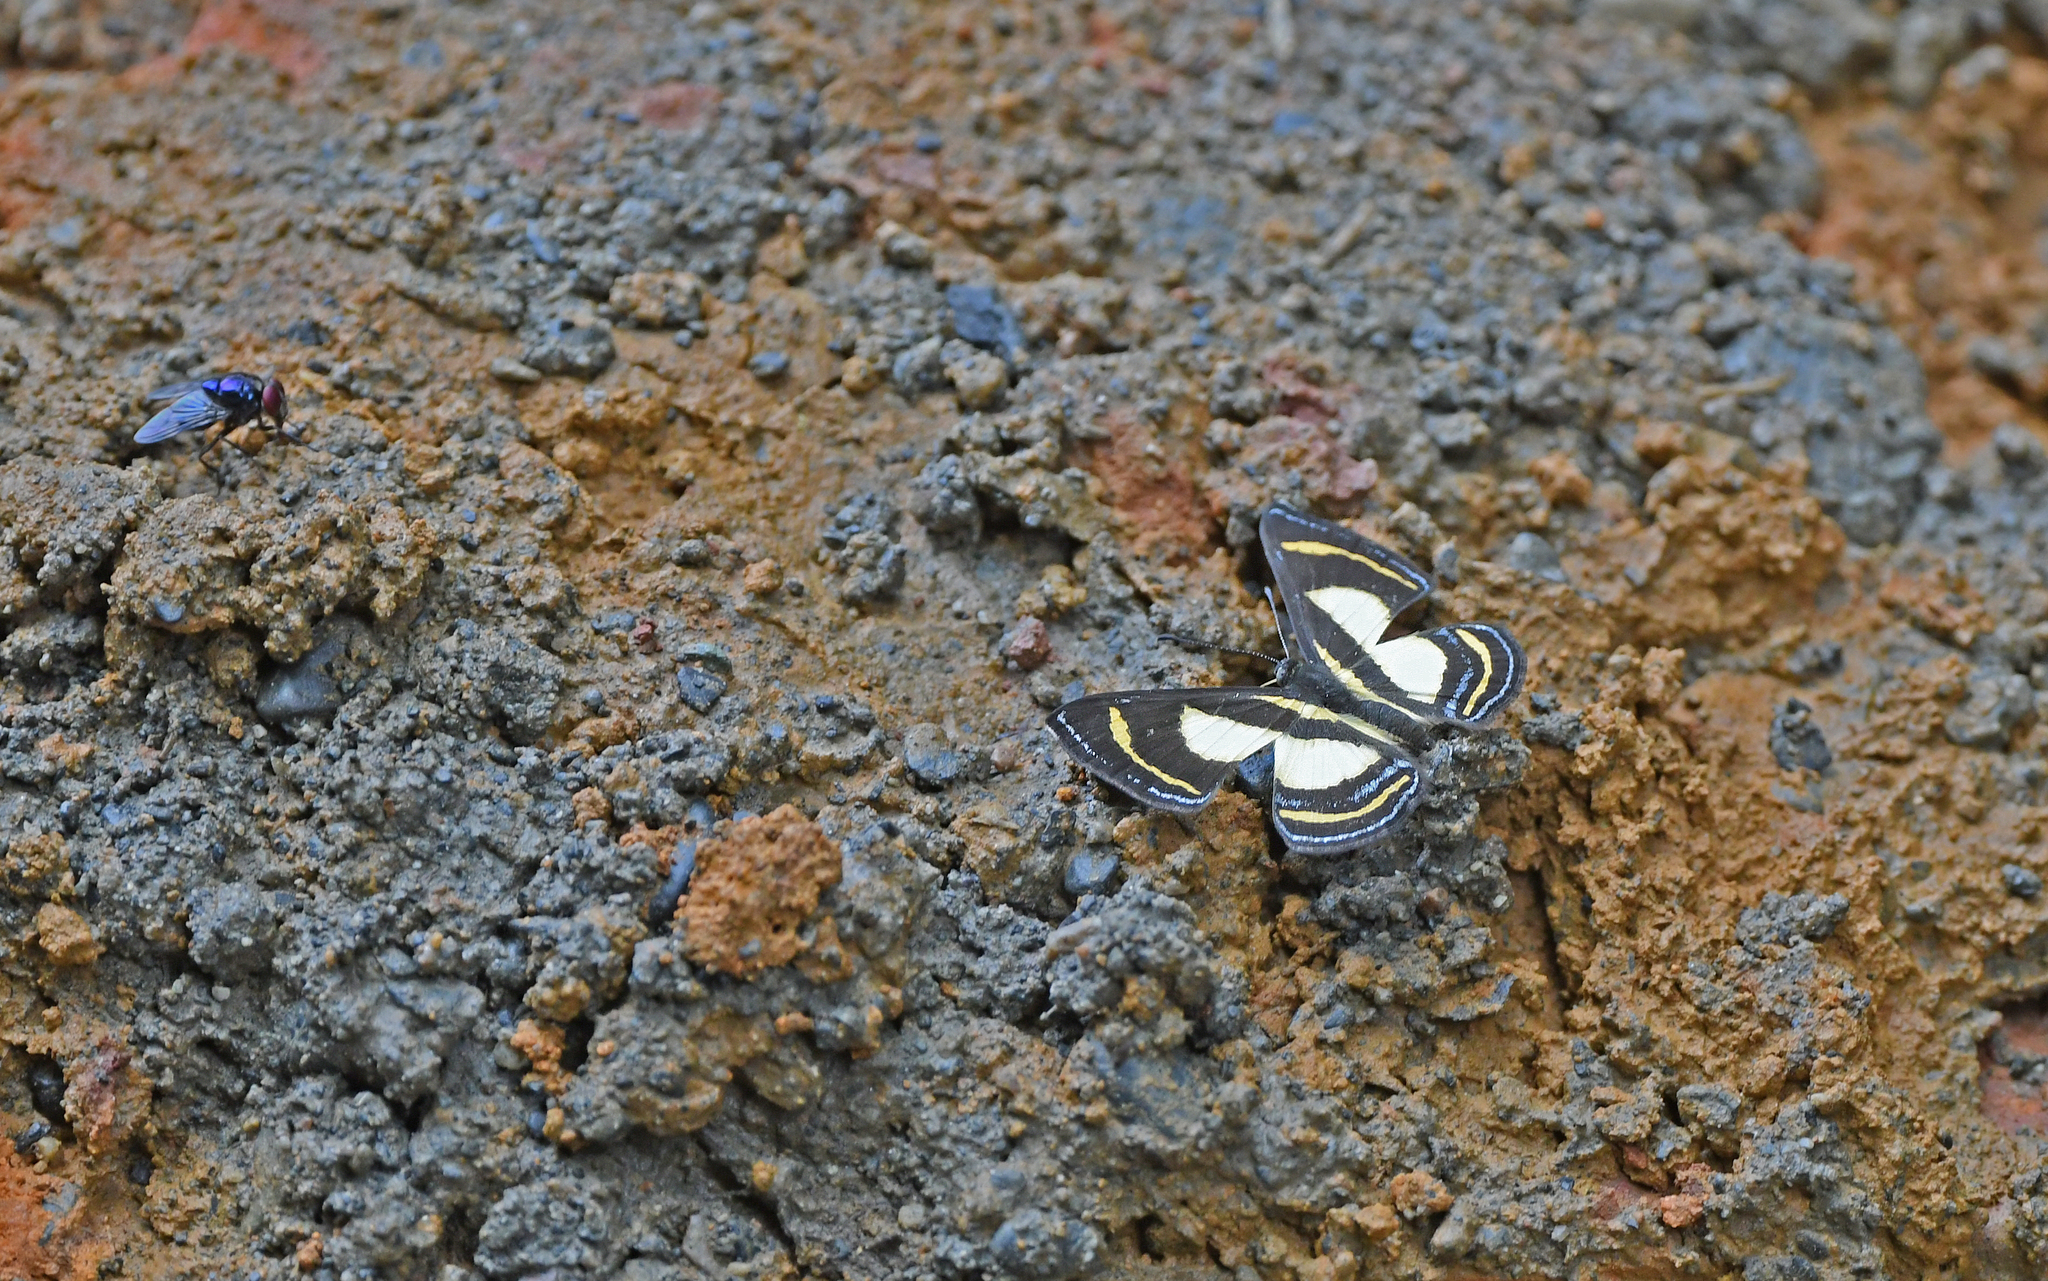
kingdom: Animalia
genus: Baeotis
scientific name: Baeotis bacaenis
